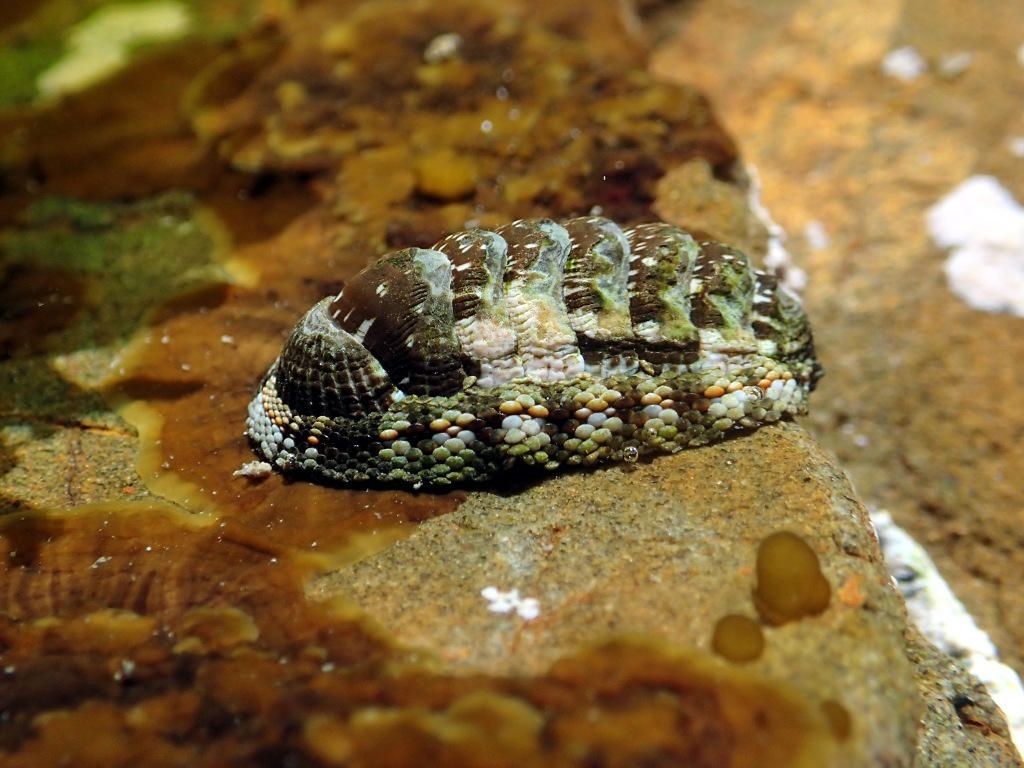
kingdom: Animalia
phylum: Mollusca
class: Polyplacophora
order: Chitonida
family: Chitonidae
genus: Sypharochiton
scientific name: Sypharochiton sinclairi
